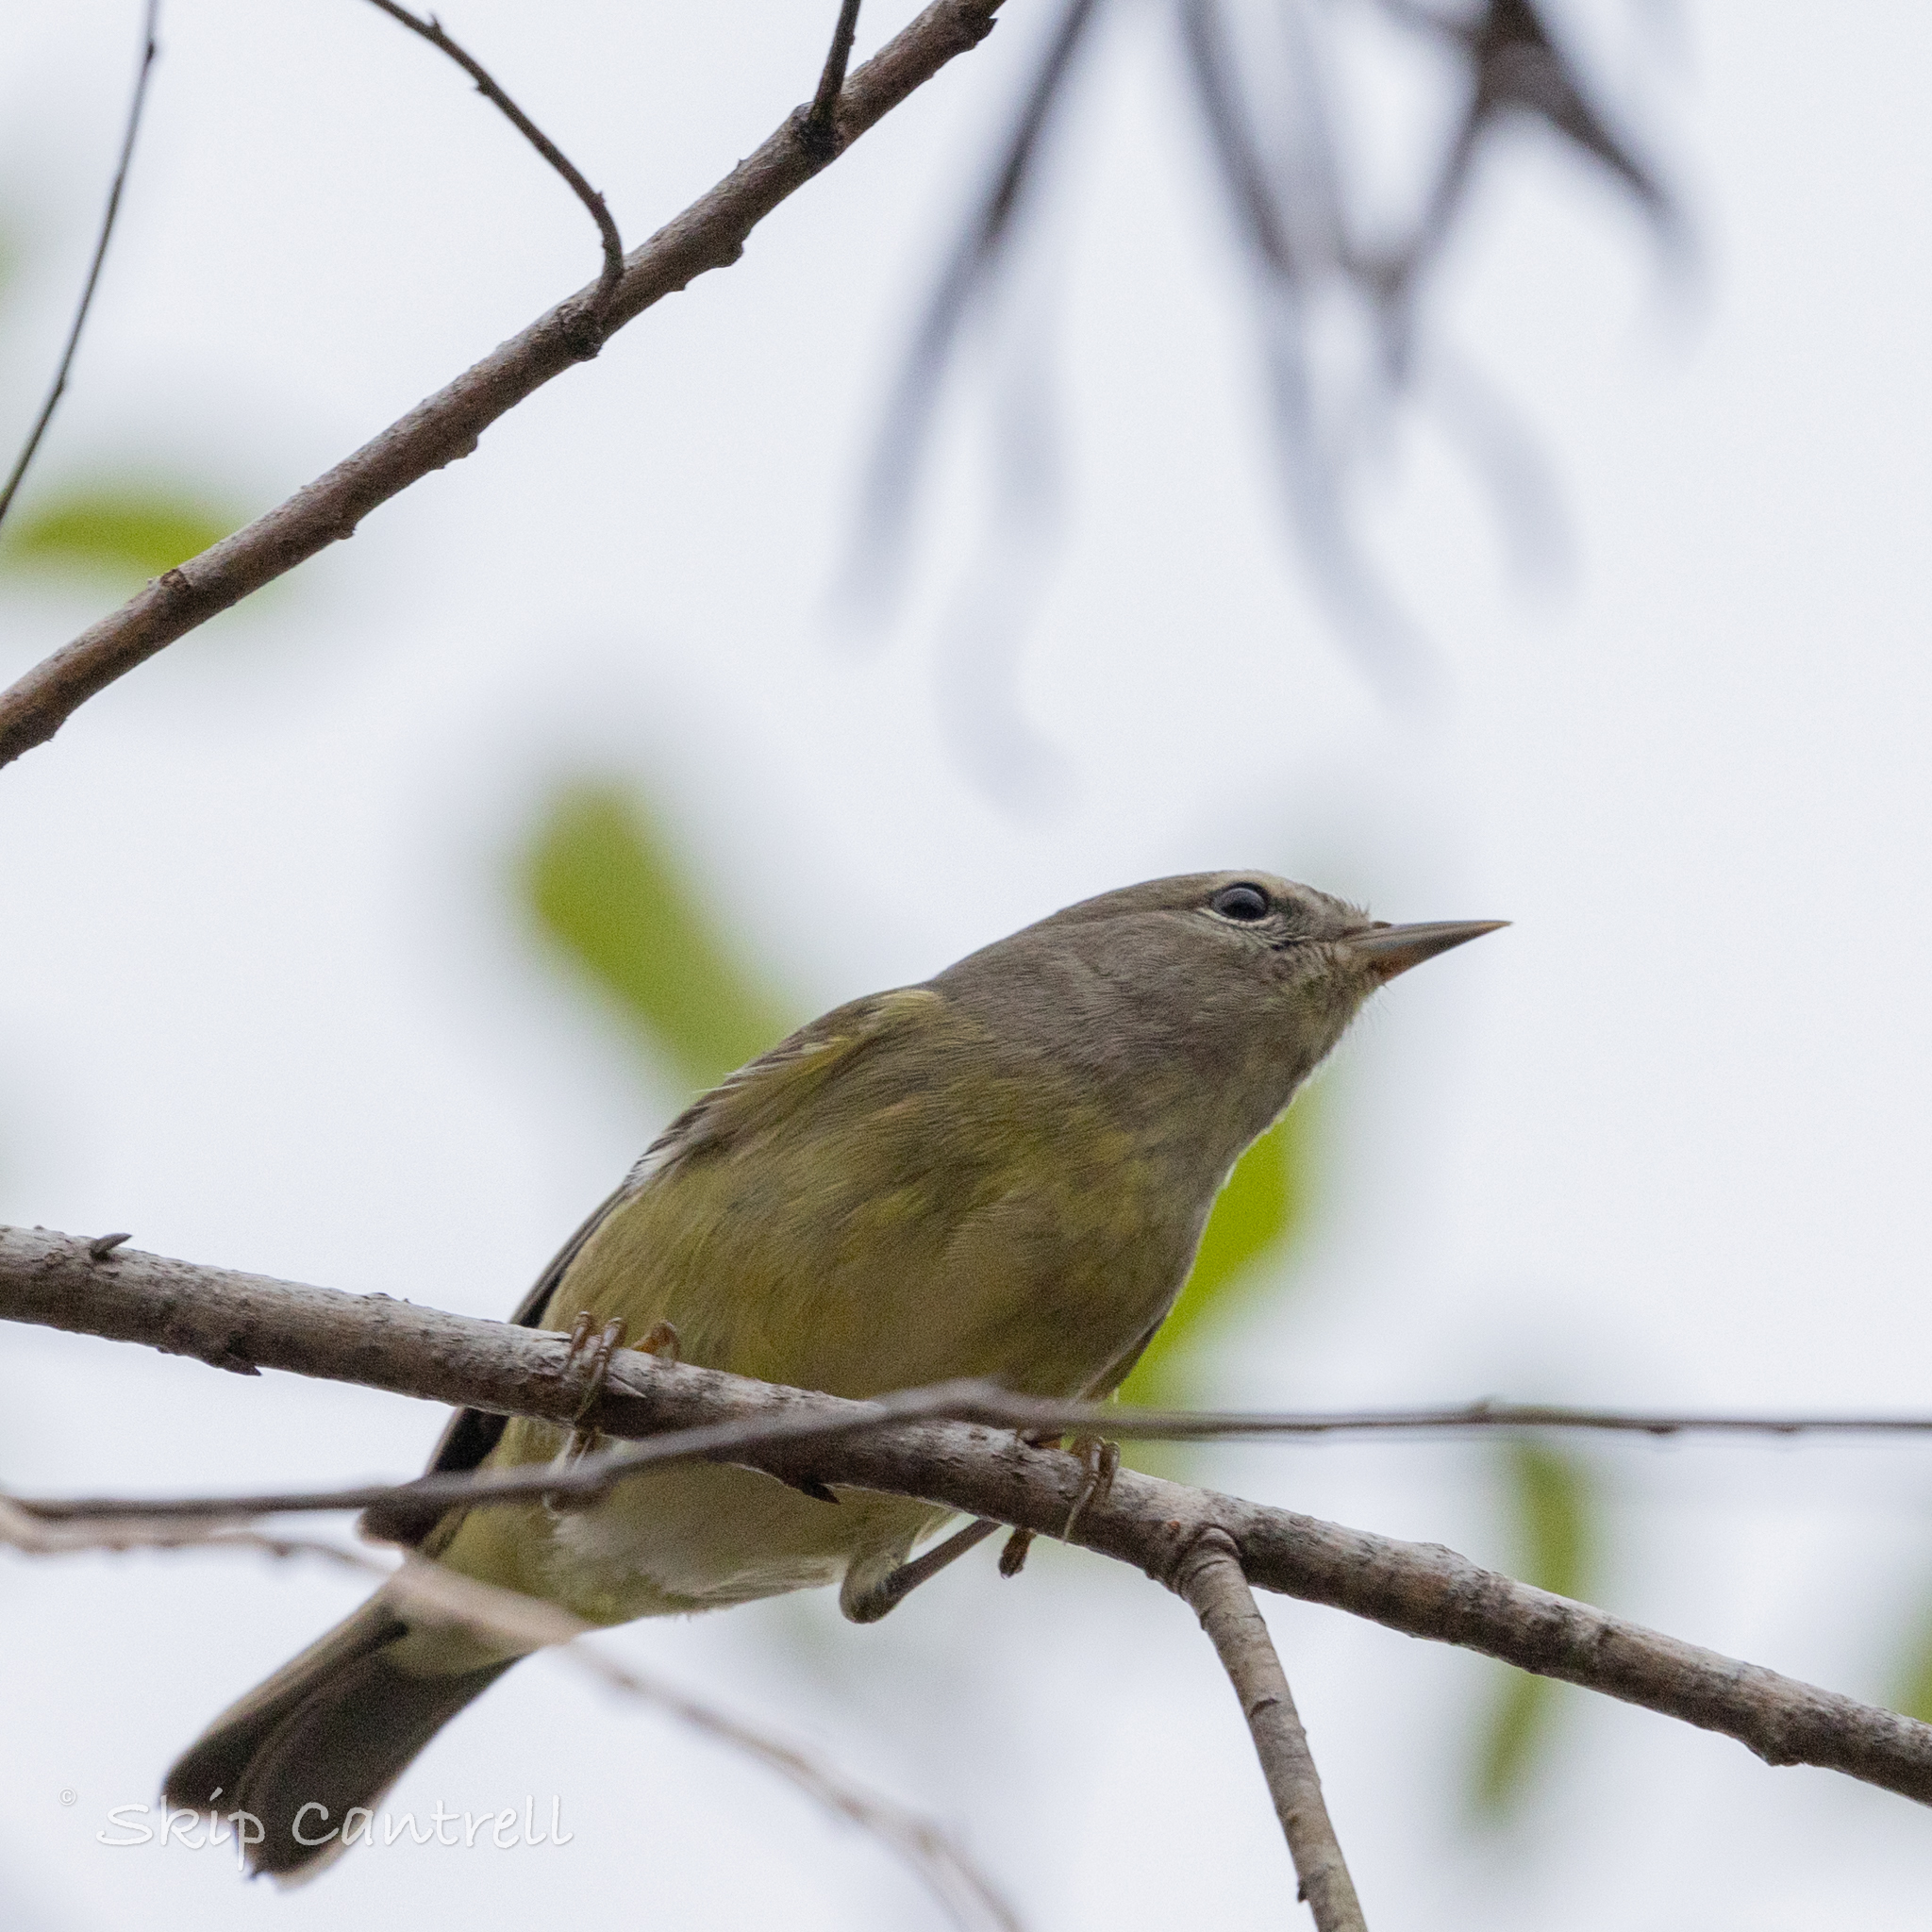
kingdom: Animalia
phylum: Chordata
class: Aves
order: Passeriformes
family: Parulidae
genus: Leiothlypis
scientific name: Leiothlypis celata
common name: Orange-crowned warbler
